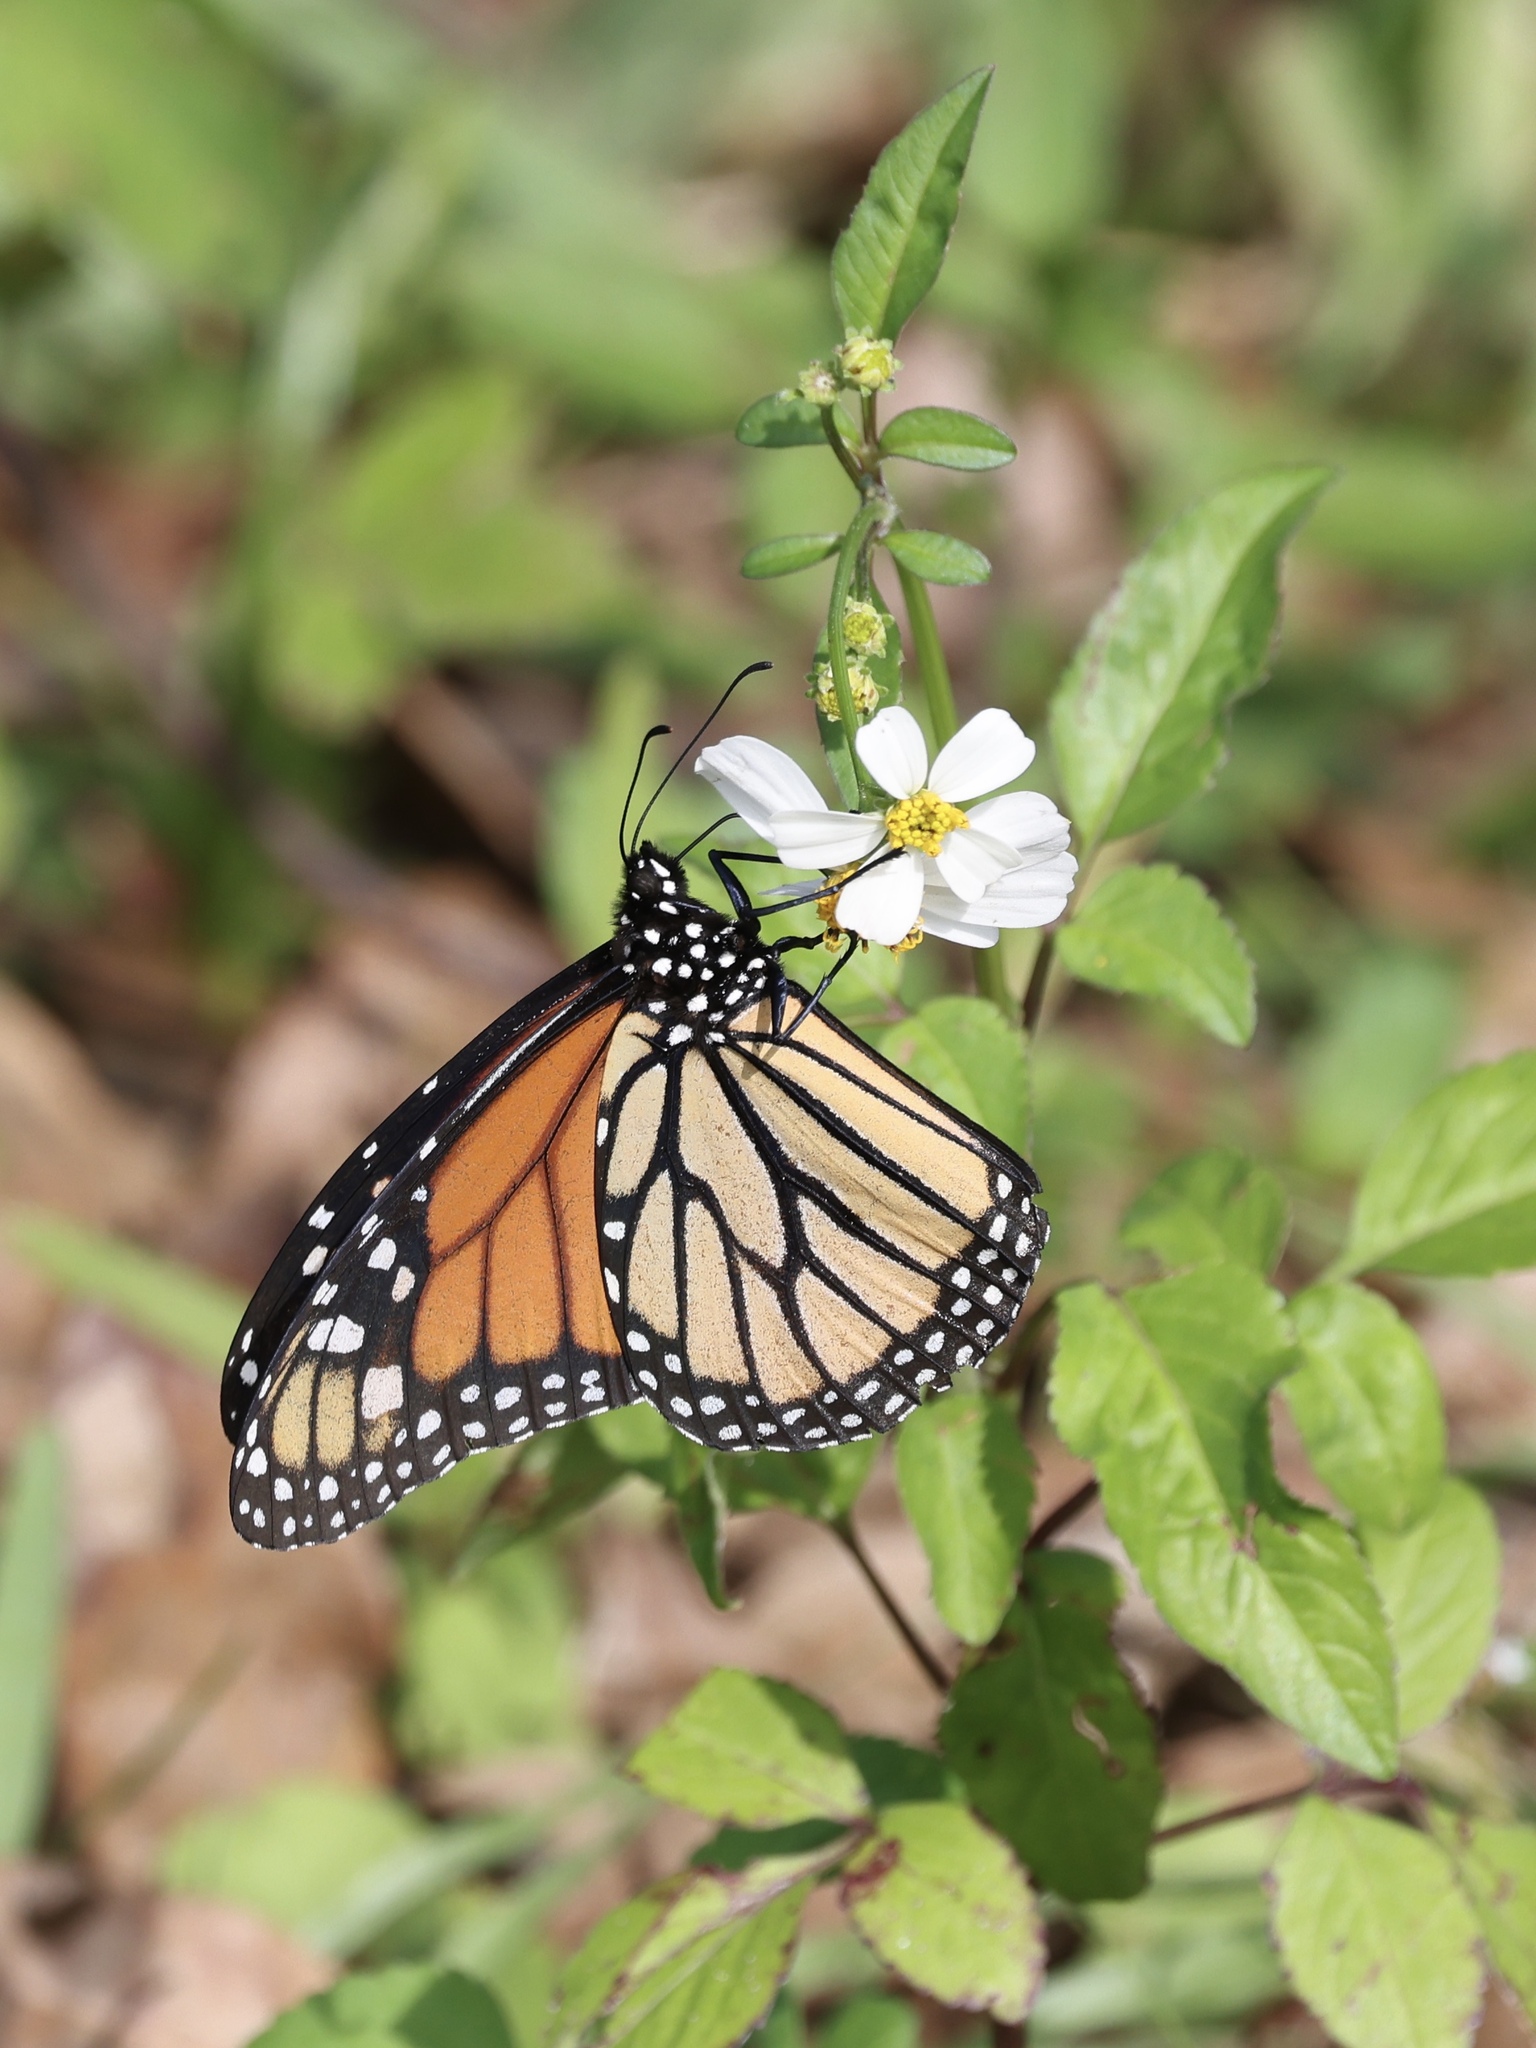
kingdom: Animalia
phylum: Arthropoda
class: Insecta
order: Lepidoptera
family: Nymphalidae
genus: Danaus
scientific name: Danaus plexippus
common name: Monarch
